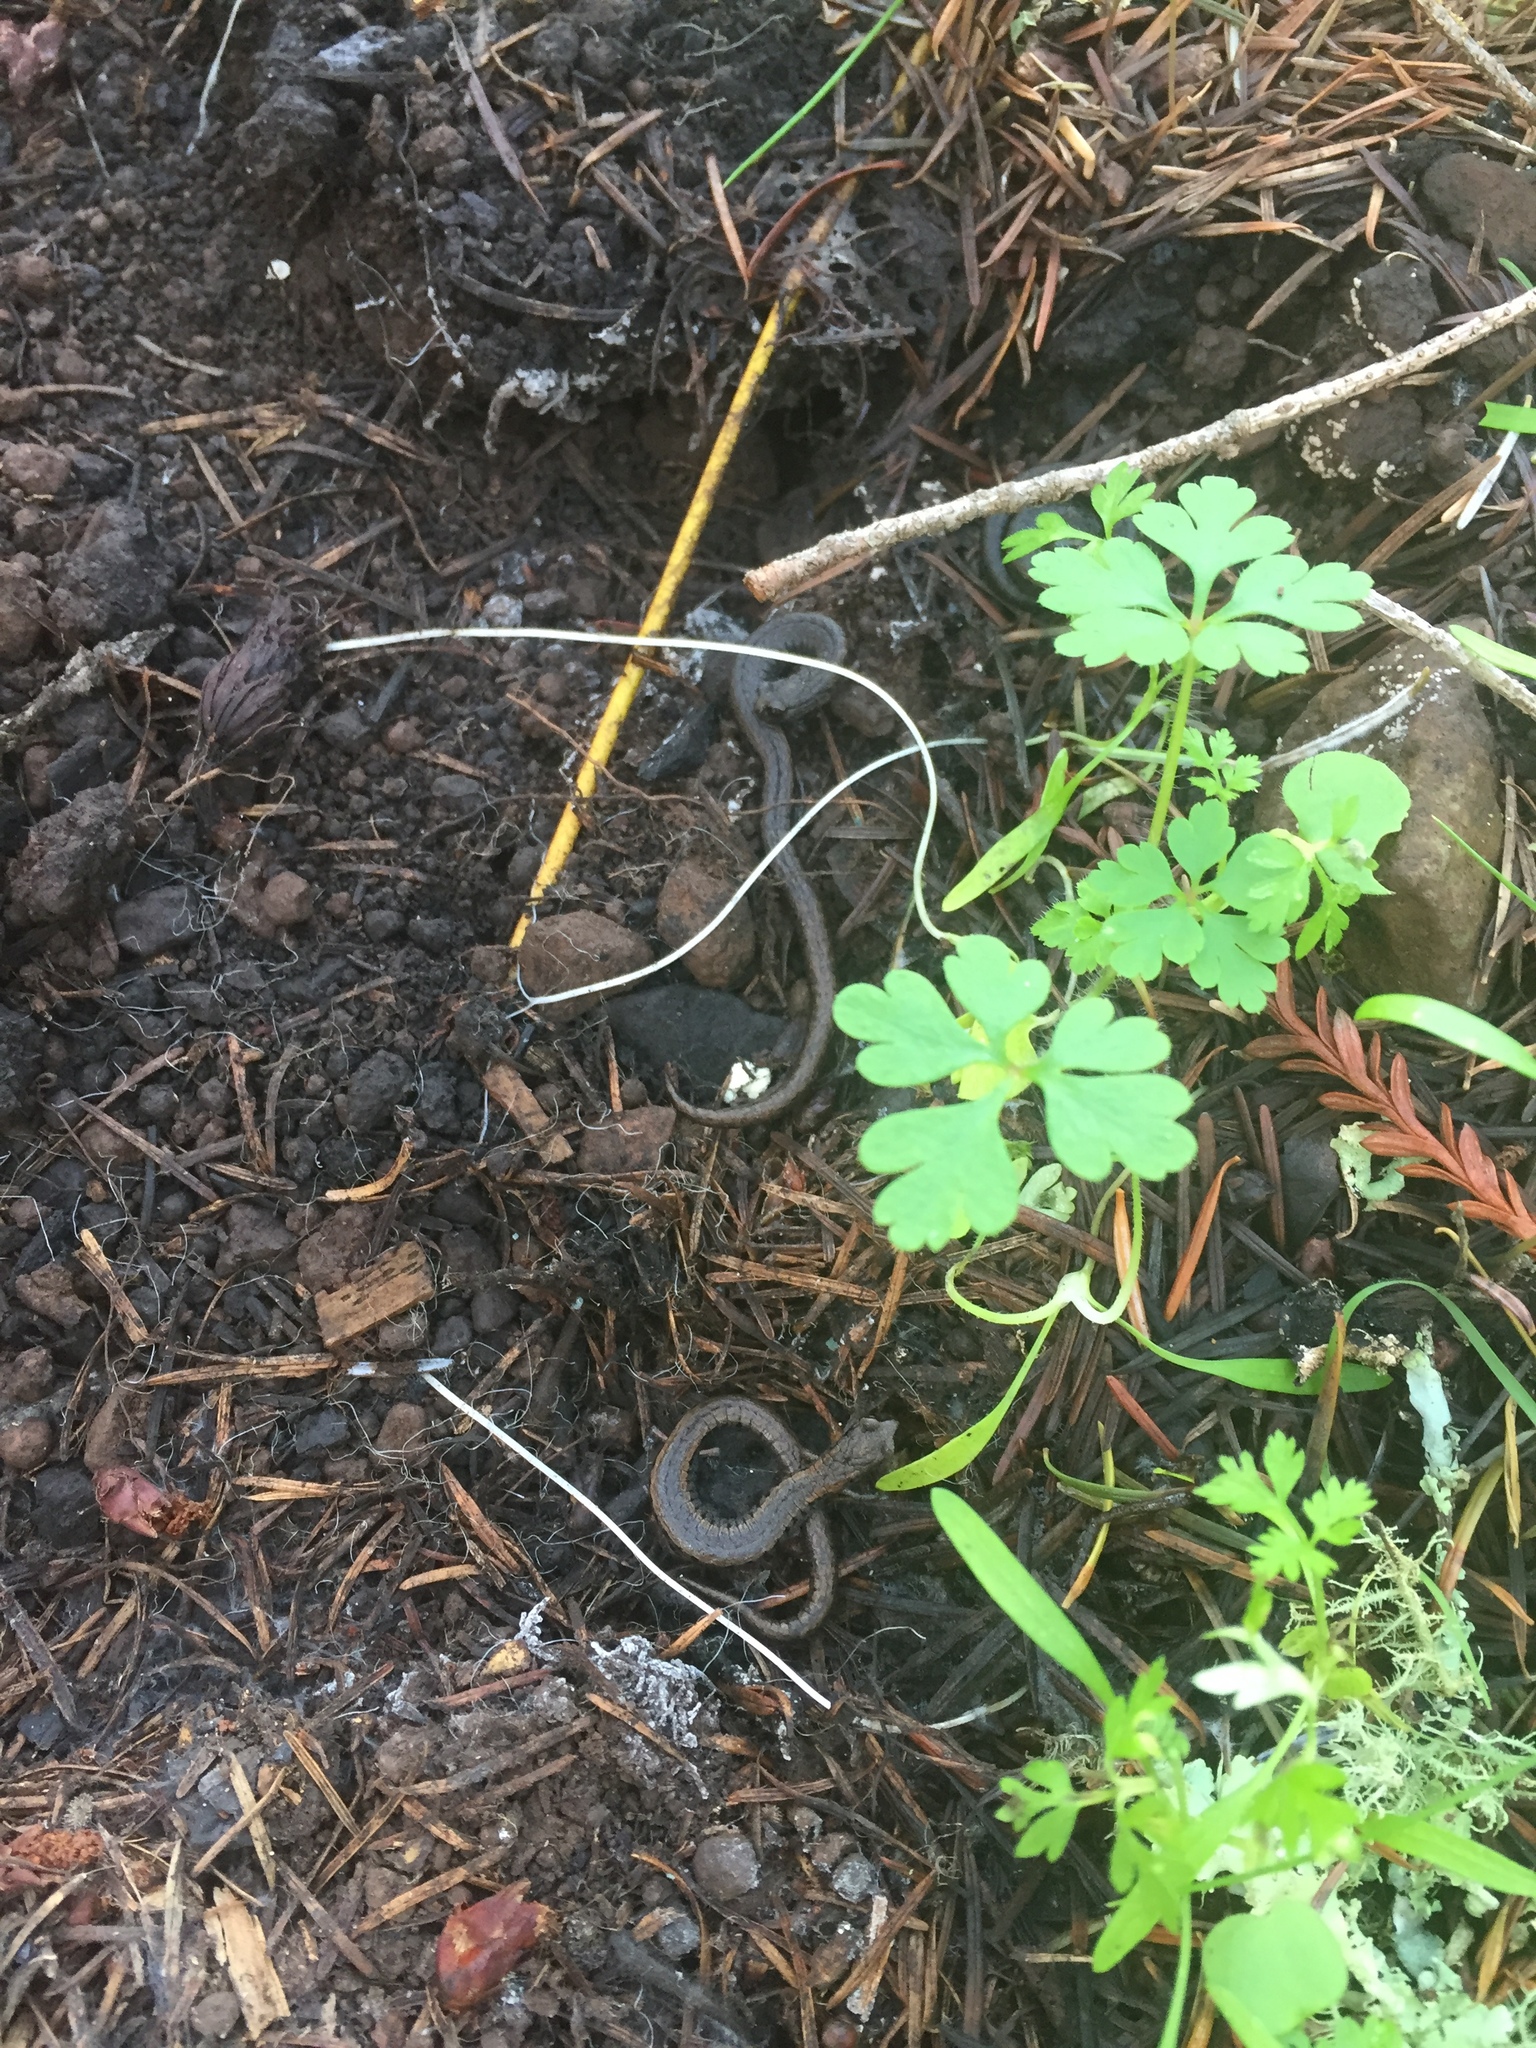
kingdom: Animalia
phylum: Chordata
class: Amphibia
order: Caudata
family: Plethodontidae
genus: Batrachoseps
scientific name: Batrachoseps attenuatus
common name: California slender salamander
